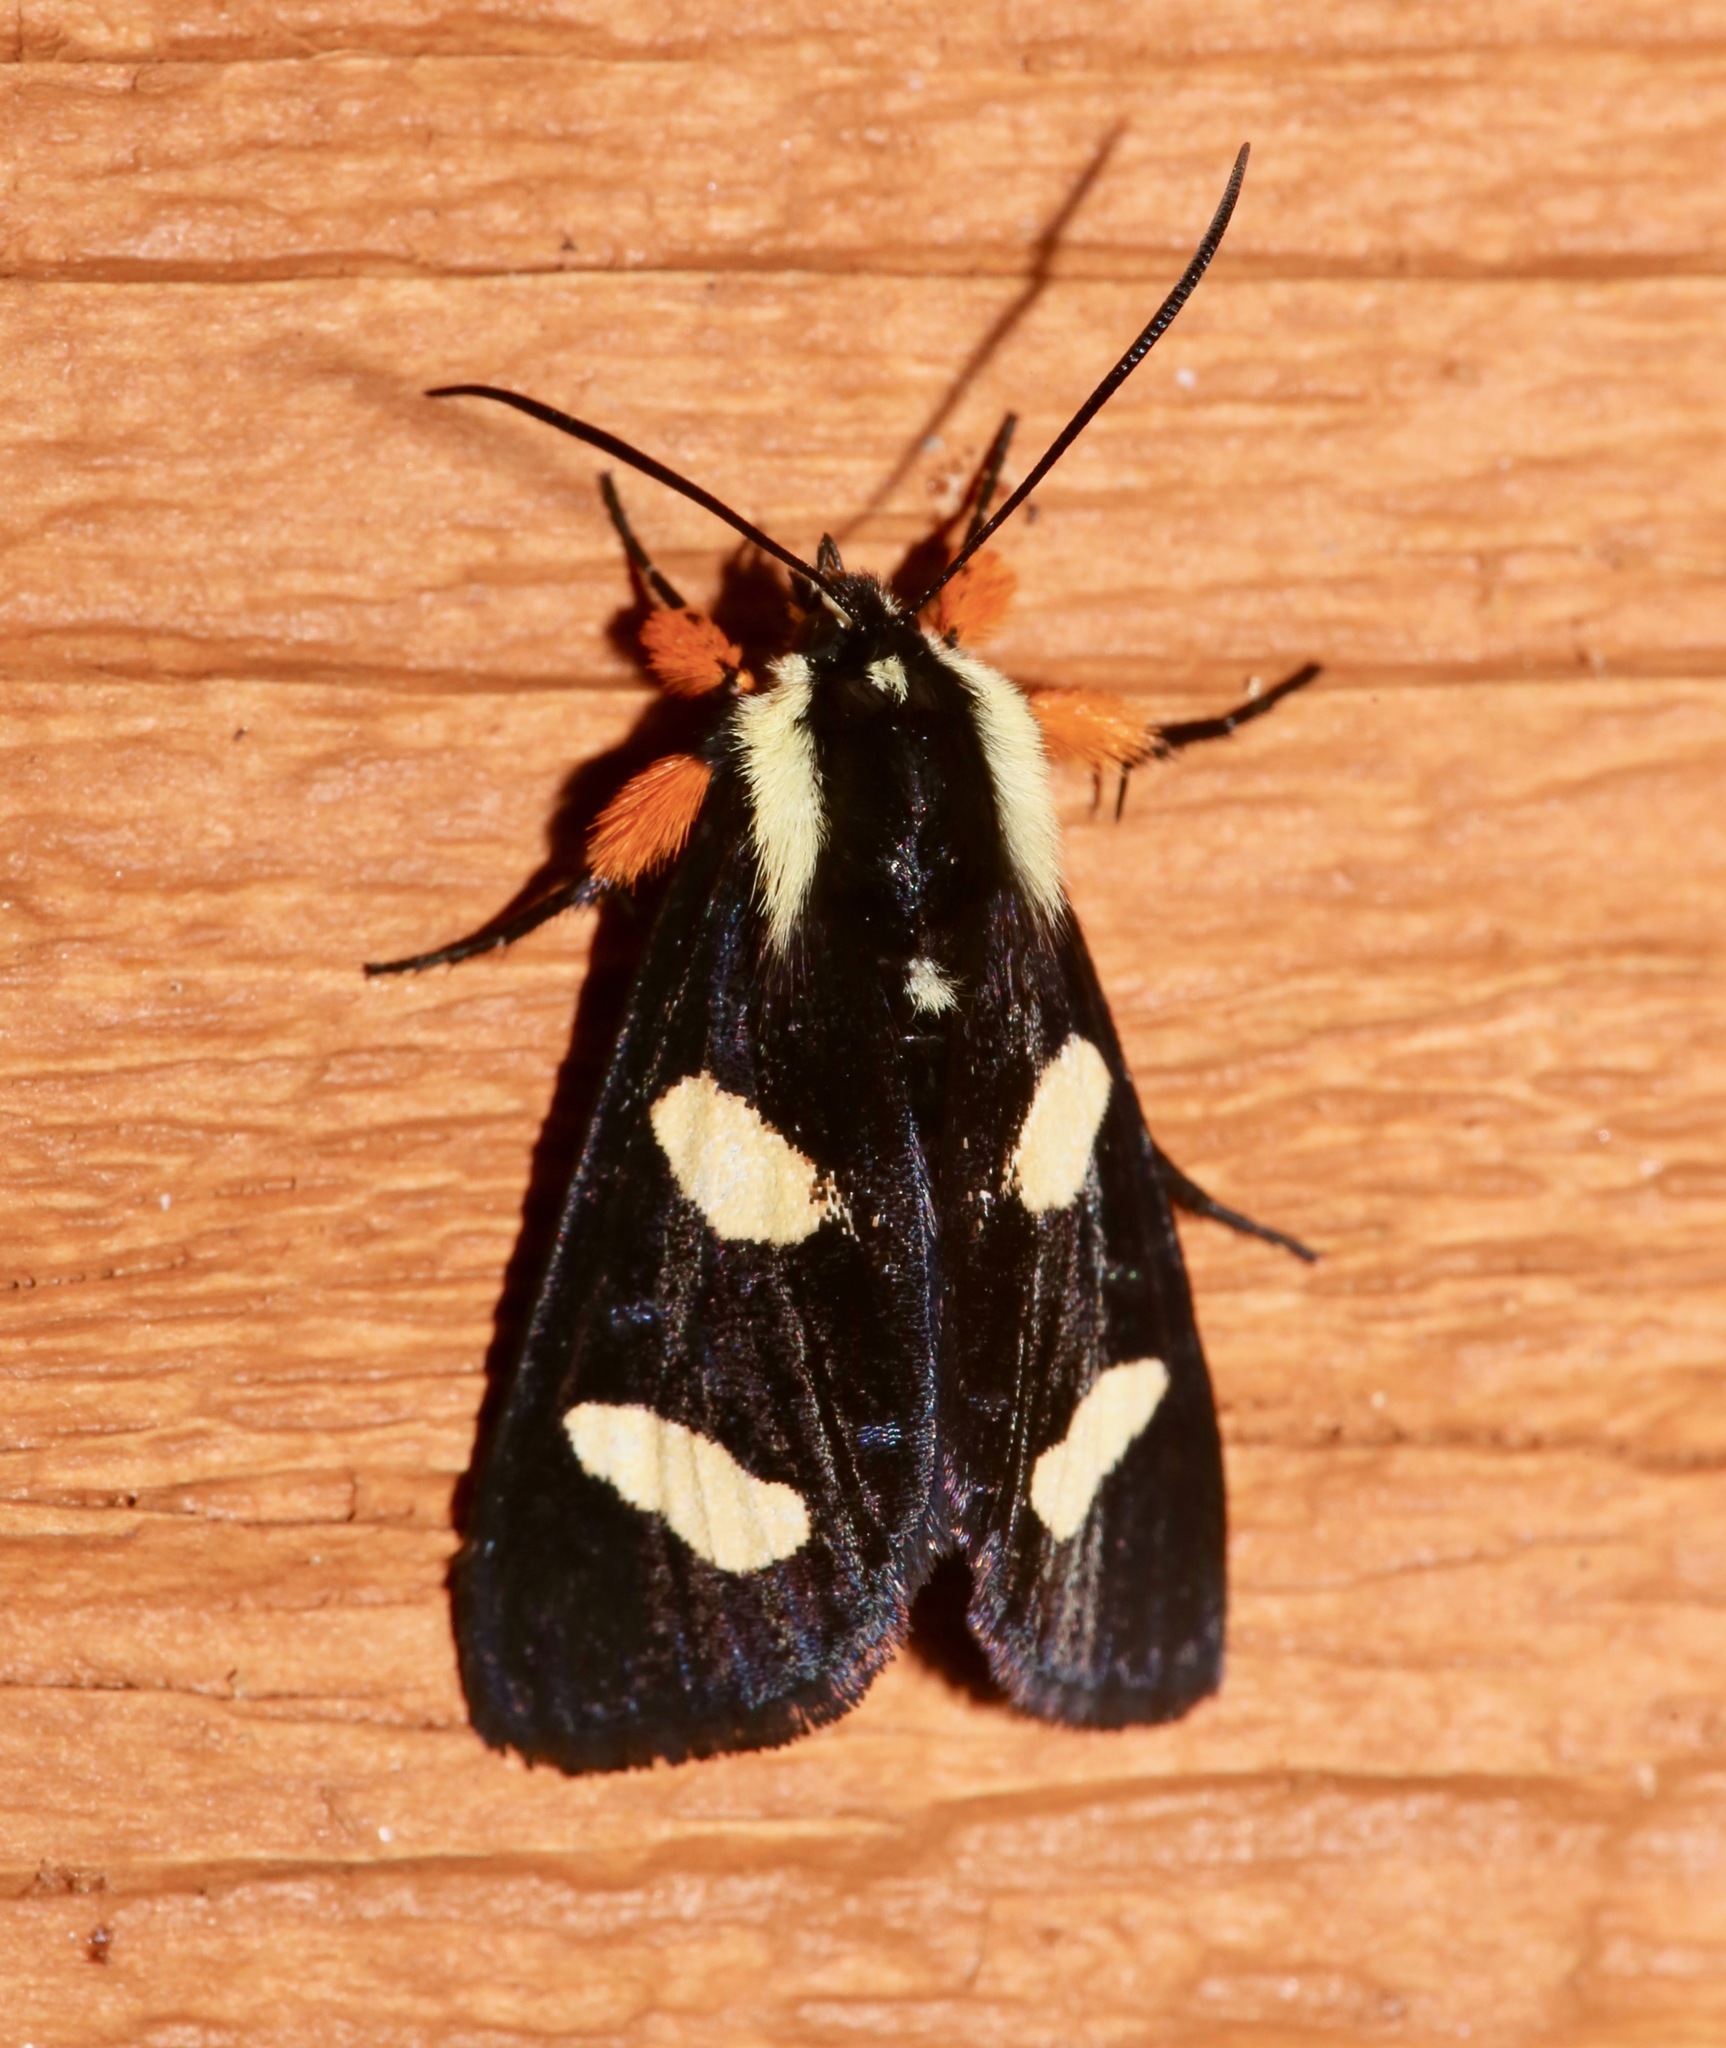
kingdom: Animalia
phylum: Arthropoda
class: Insecta
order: Lepidoptera
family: Noctuidae
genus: Alypia
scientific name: Alypia wittfeldii
